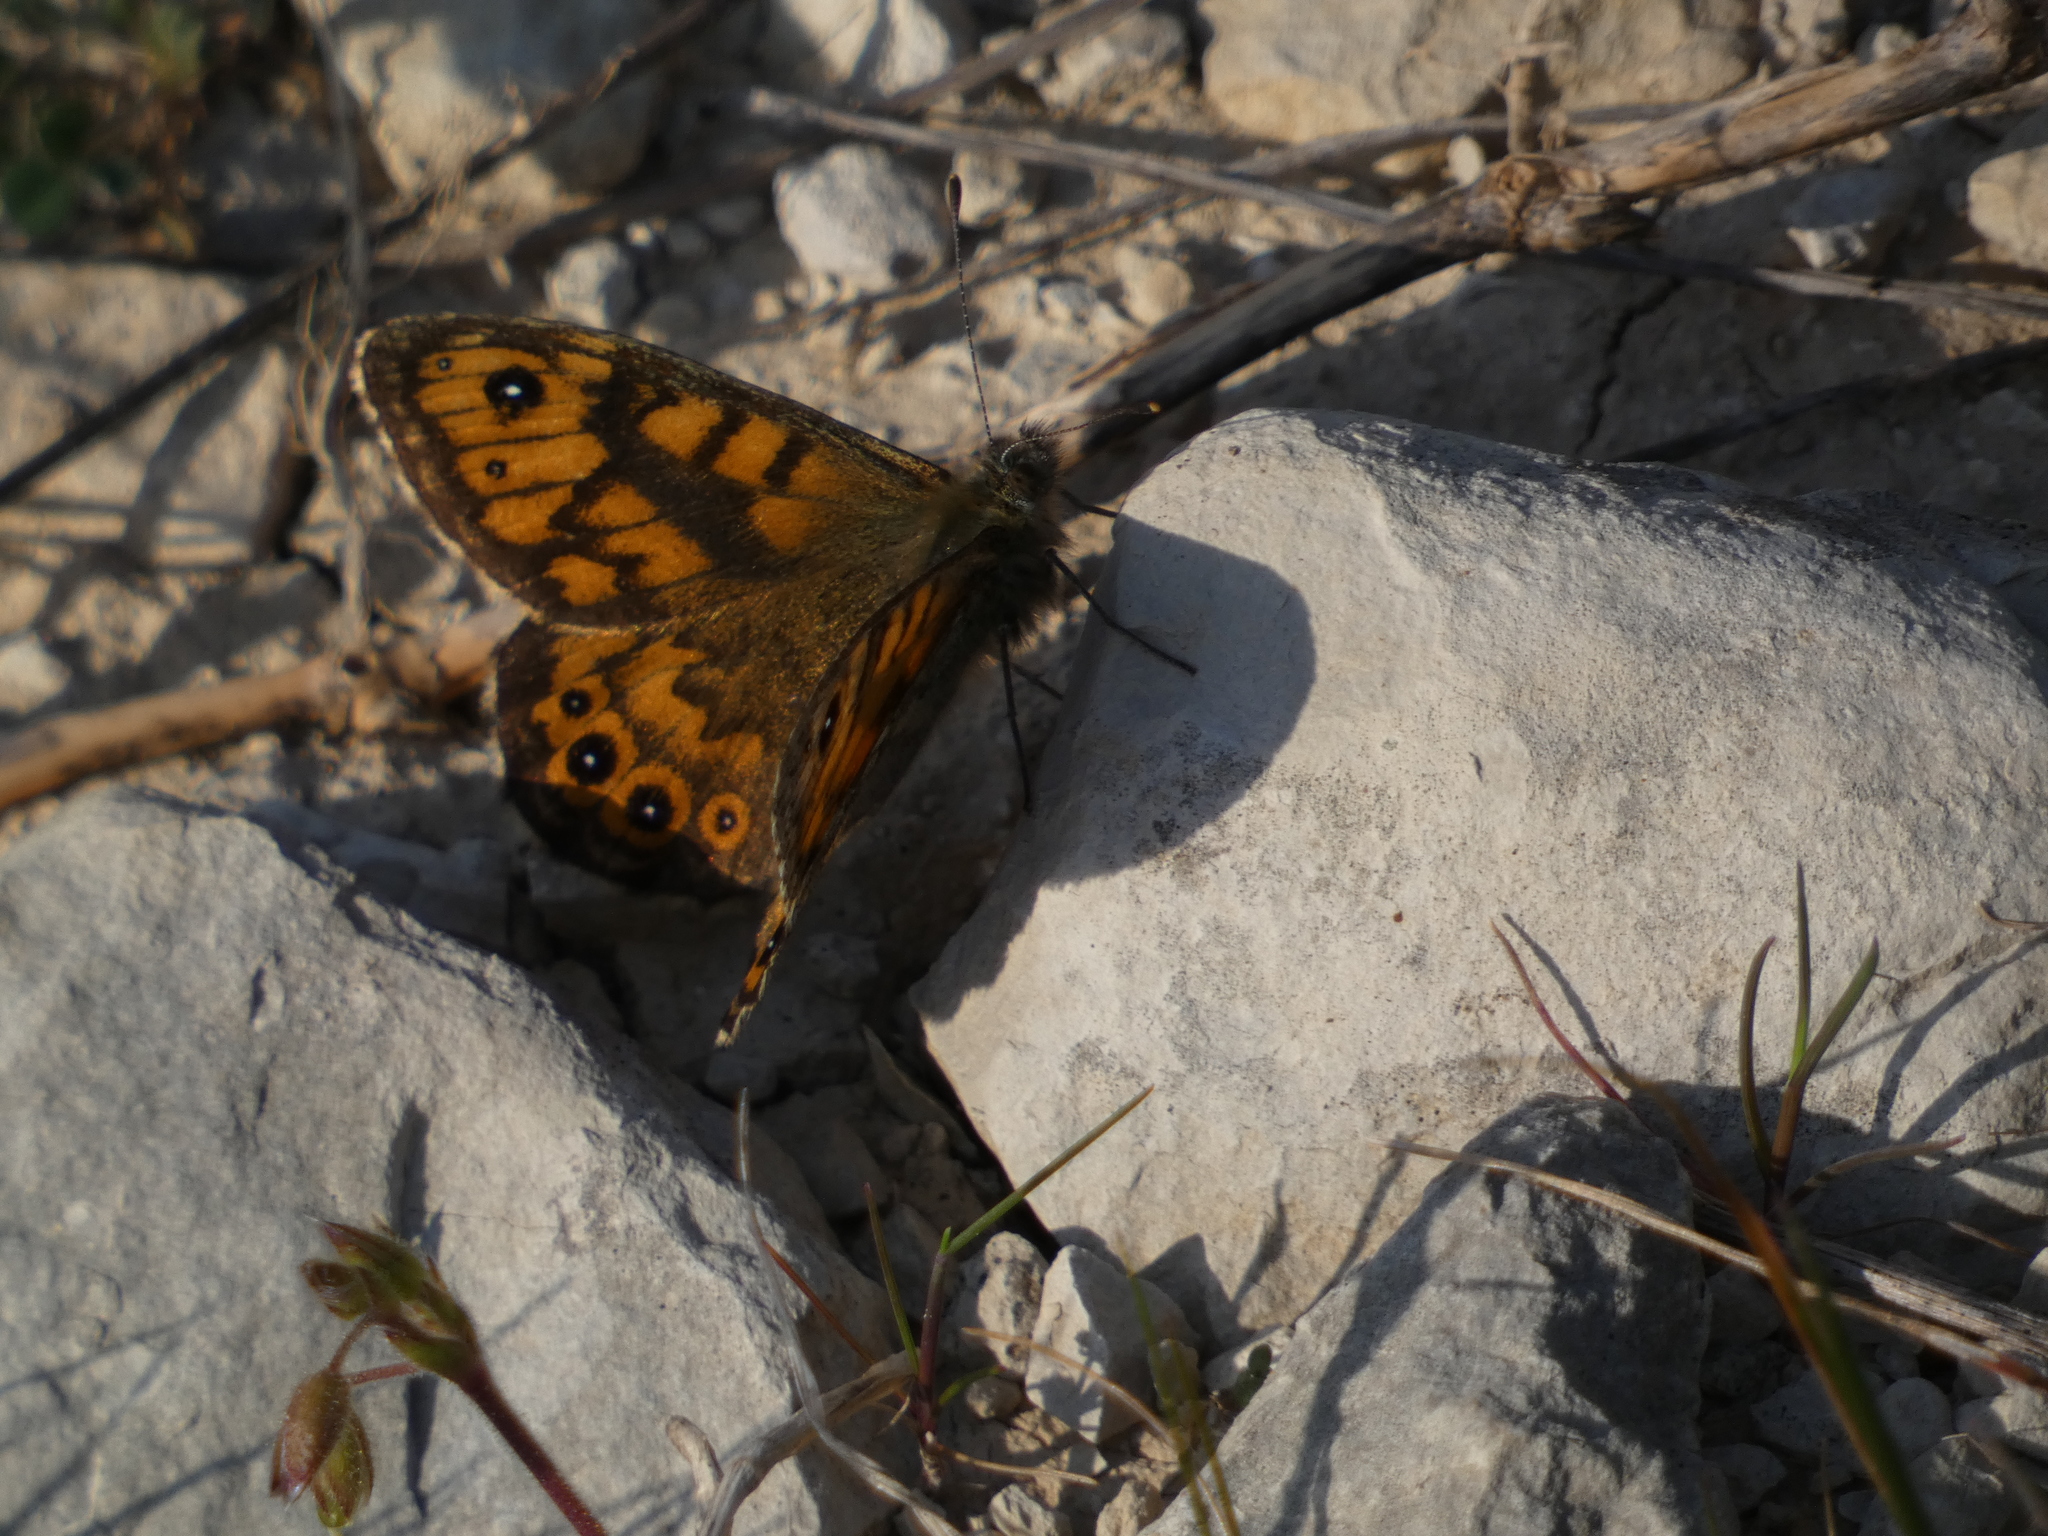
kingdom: Animalia
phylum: Arthropoda
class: Insecta
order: Lepidoptera
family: Nymphalidae
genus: Pararge
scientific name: Pararge Lasiommata megera
